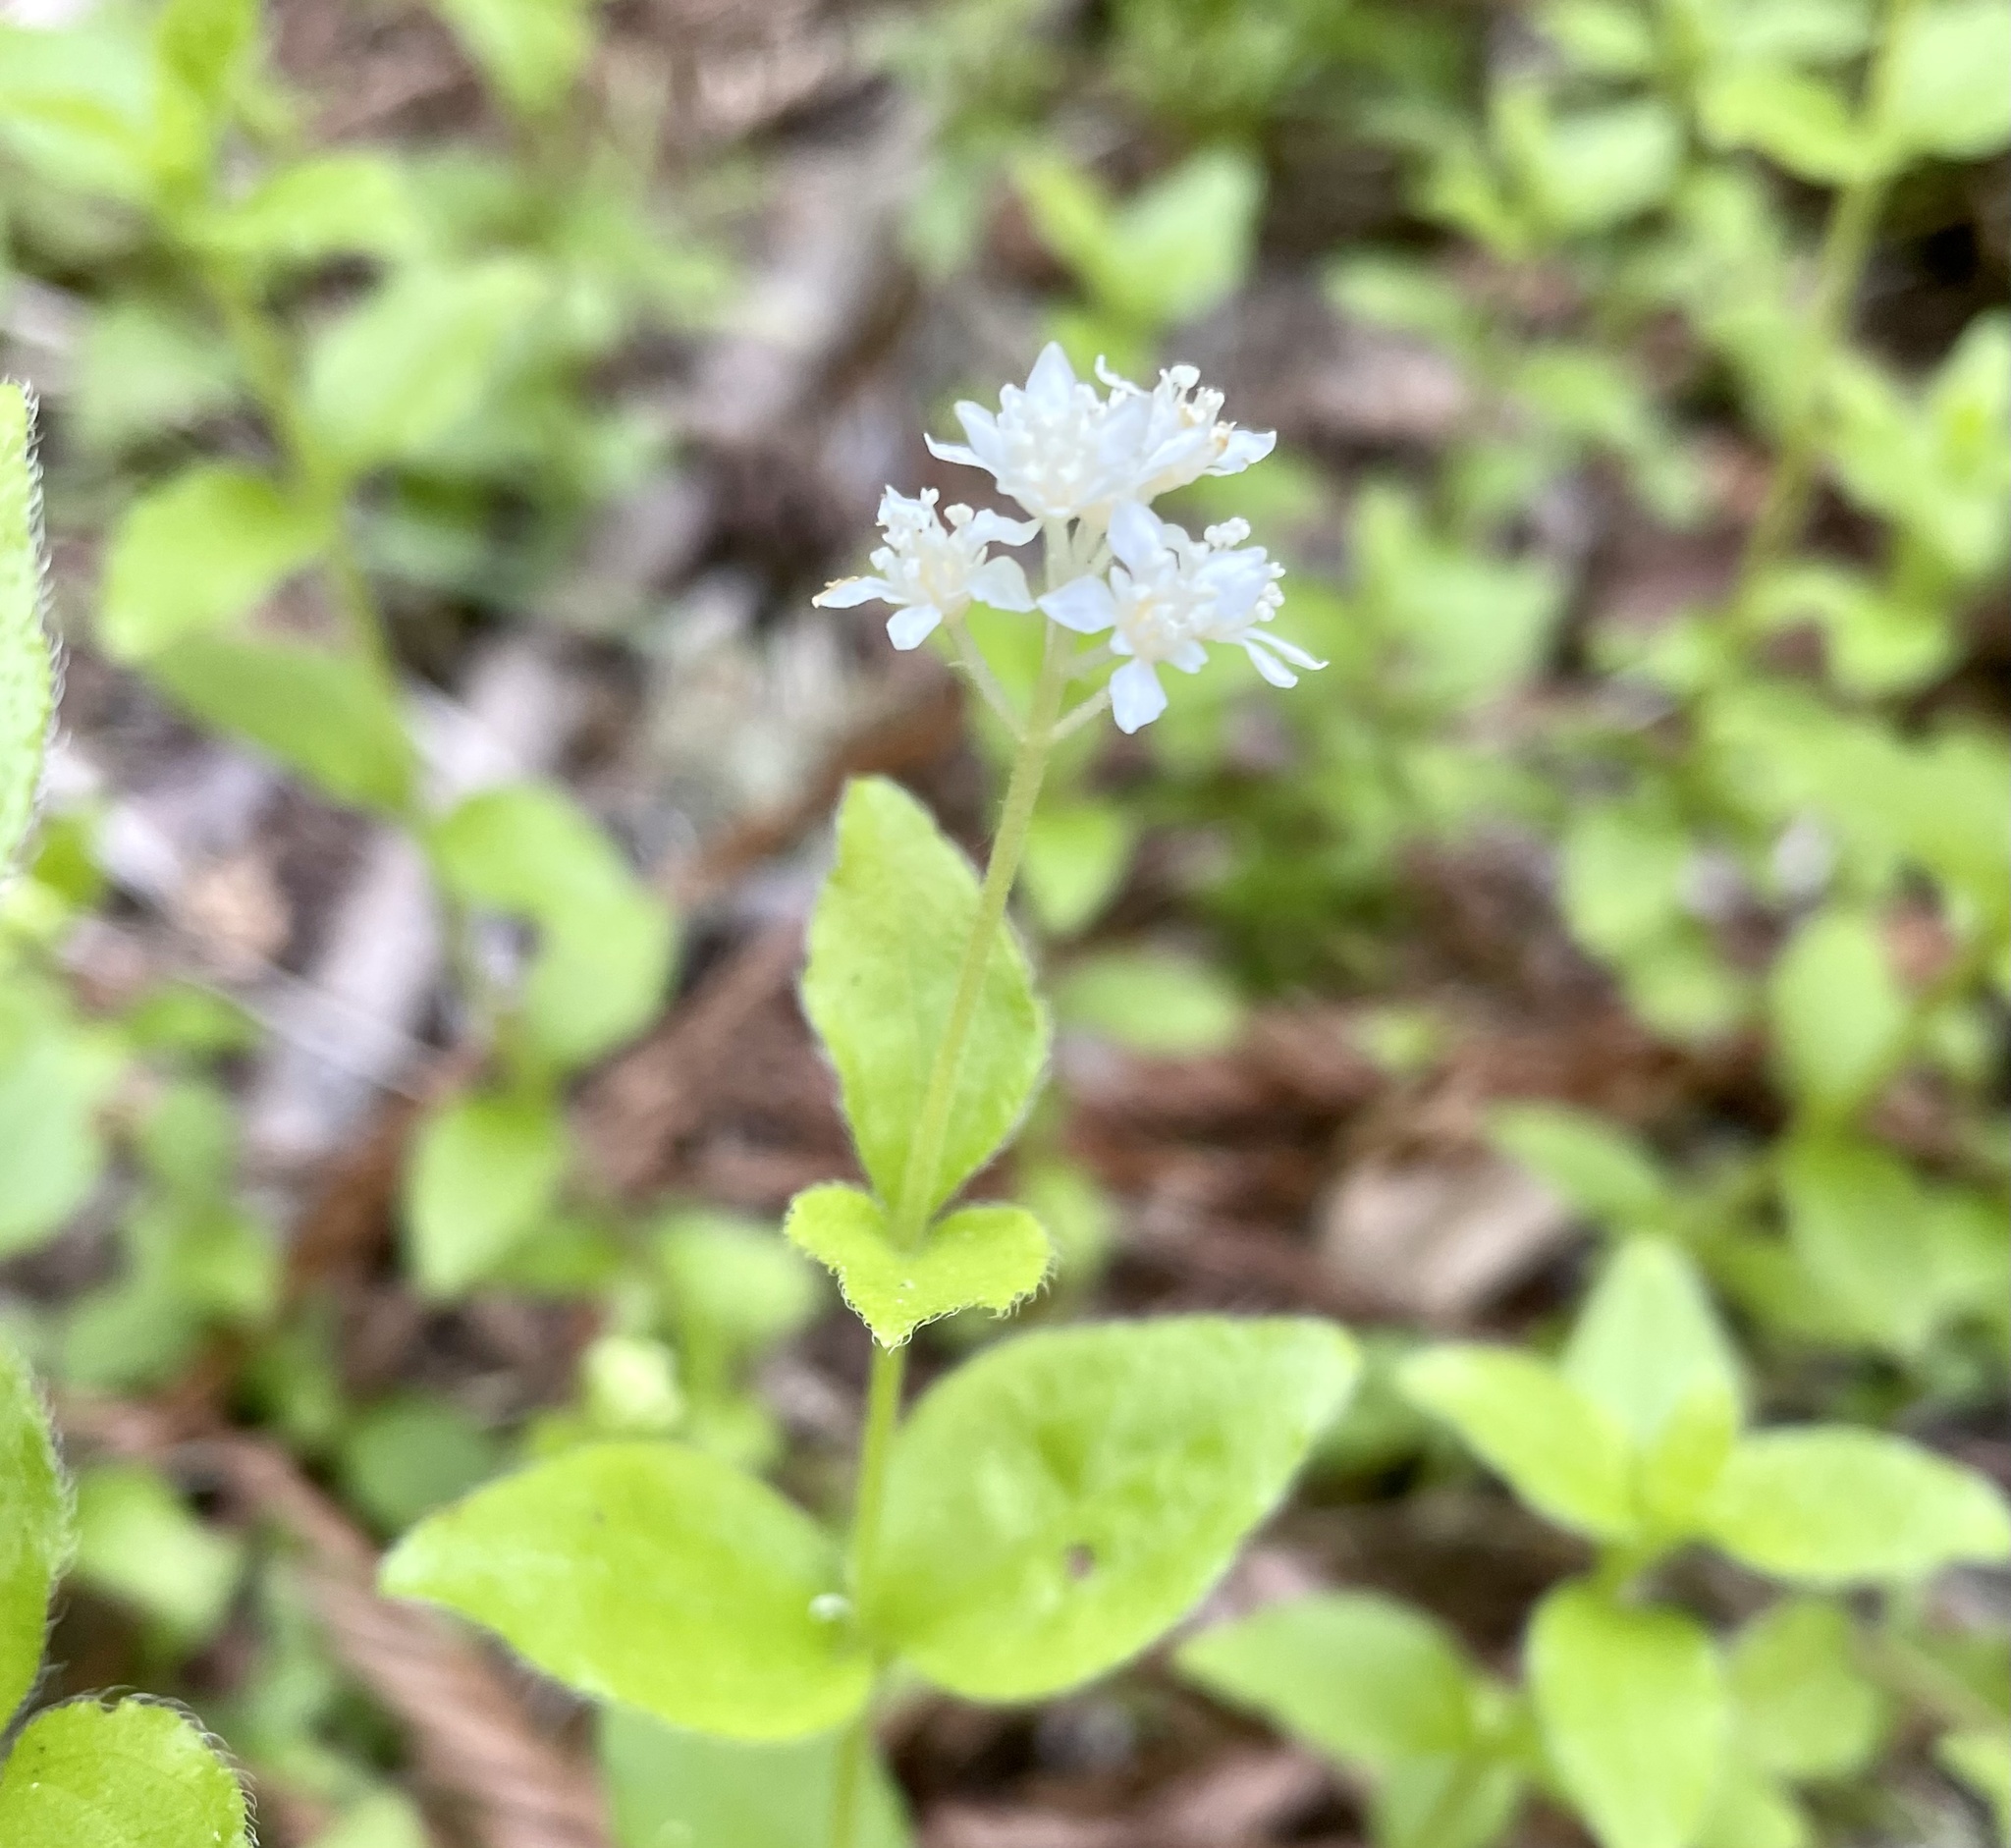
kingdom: Plantae
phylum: Tracheophyta
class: Magnoliopsida
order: Cornales
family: Hydrangeaceae
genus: Whipplea
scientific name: Whipplea modesta
